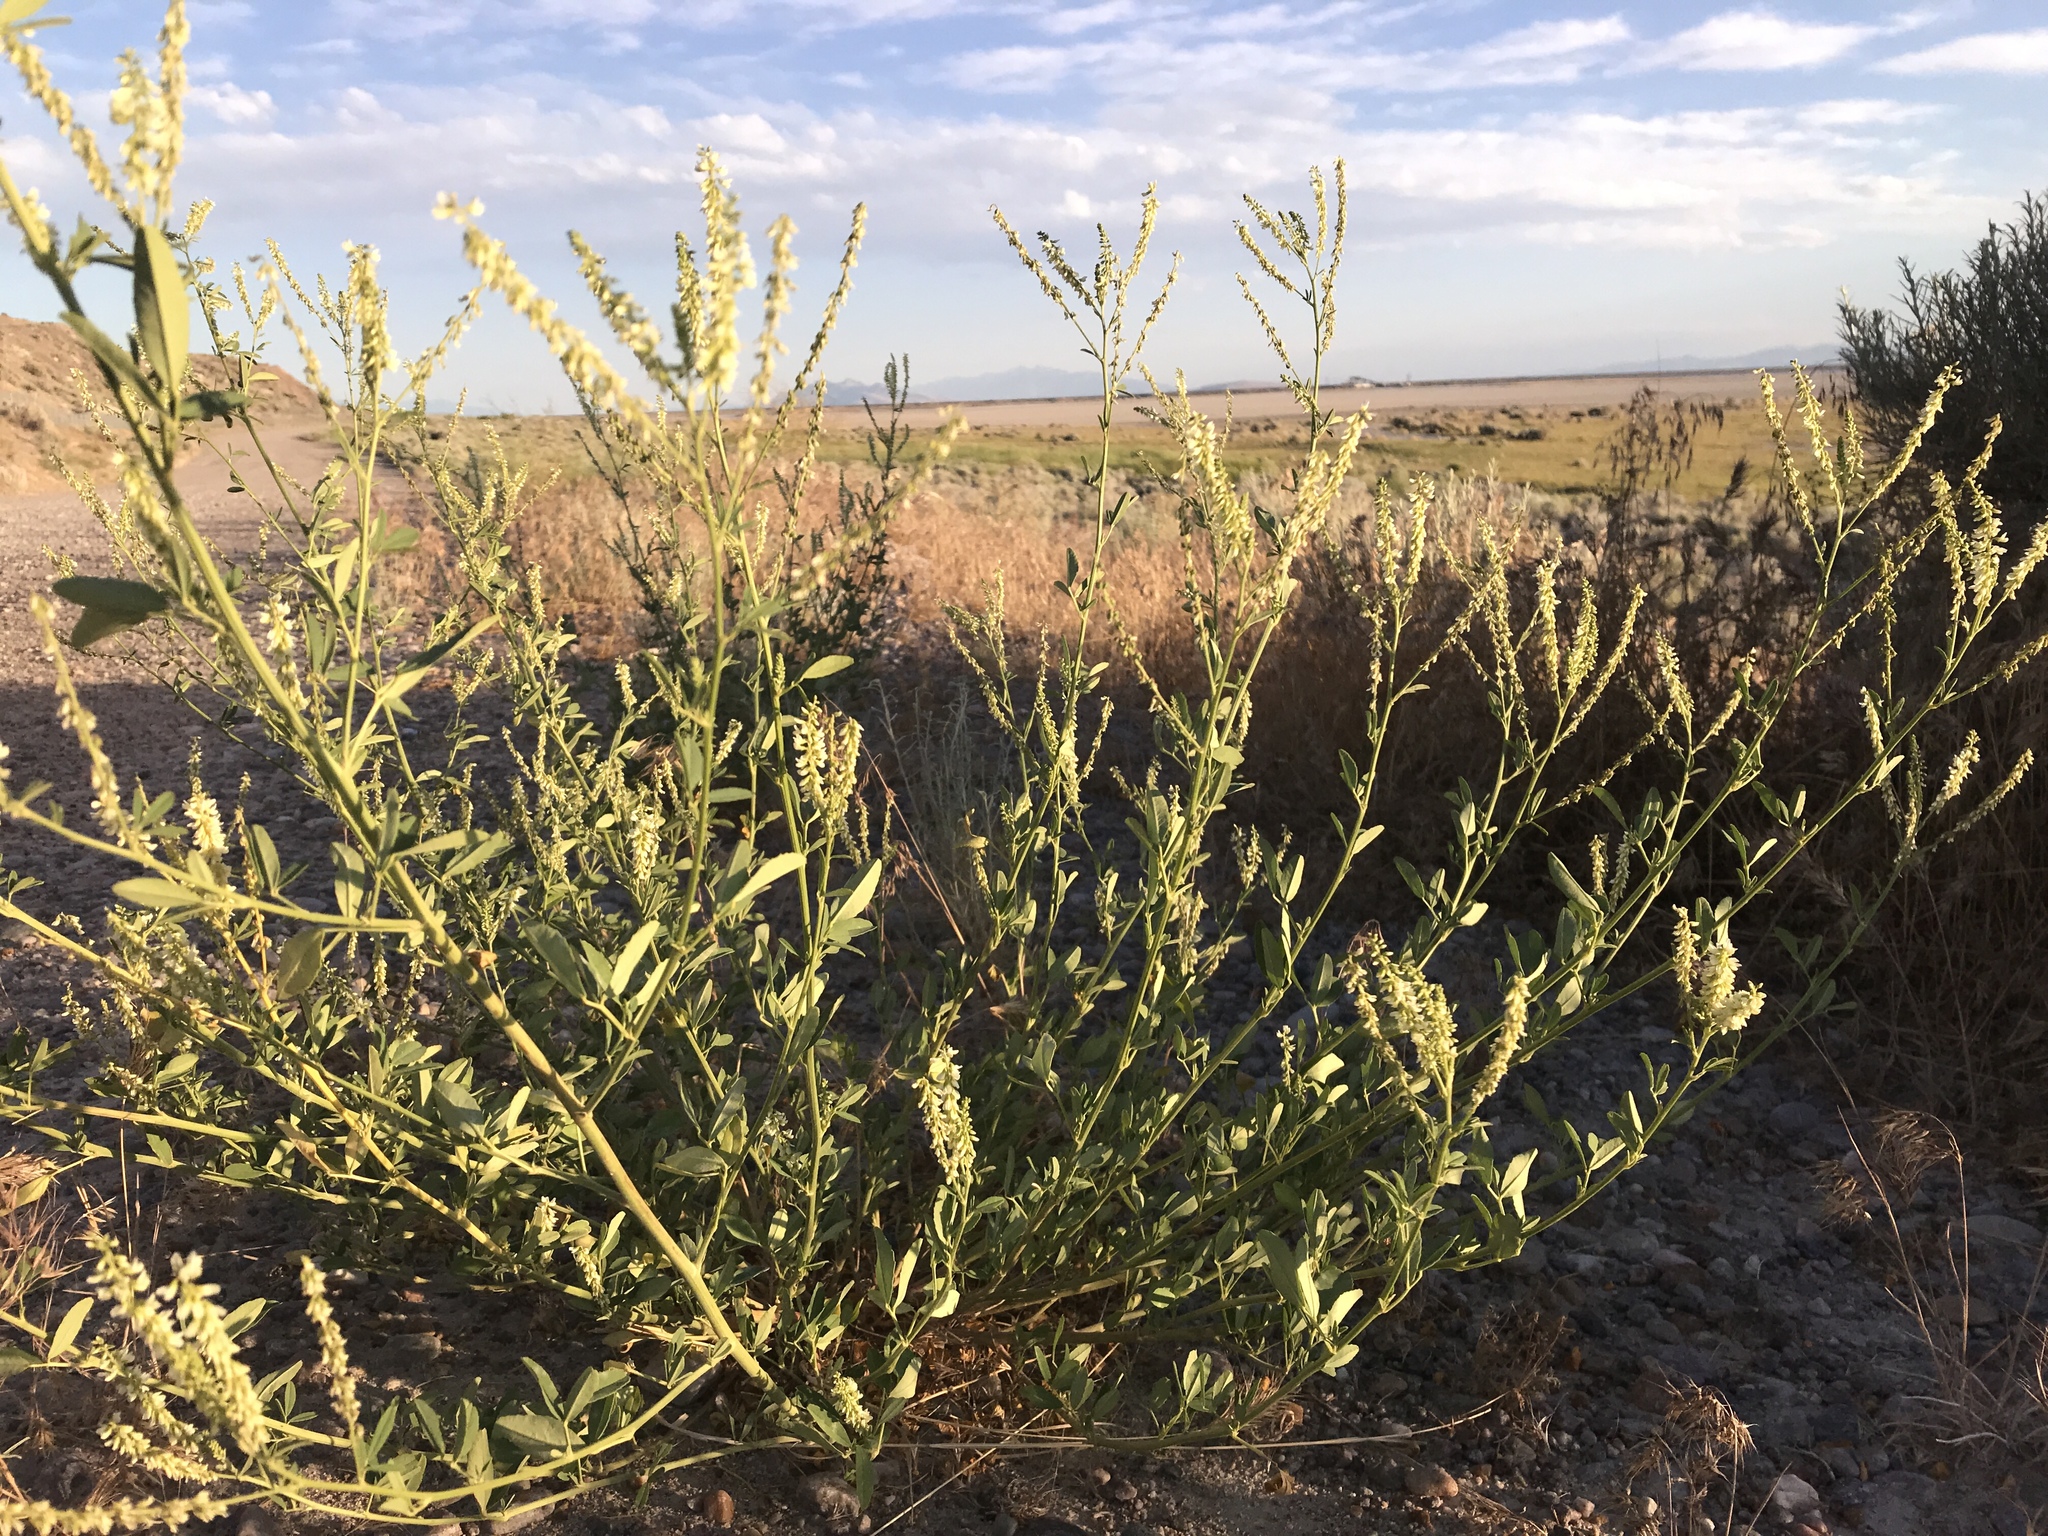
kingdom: Plantae
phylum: Tracheophyta
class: Magnoliopsida
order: Fabales
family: Fabaceae
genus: Melilotus
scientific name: Melilotus albus
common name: White melilot
